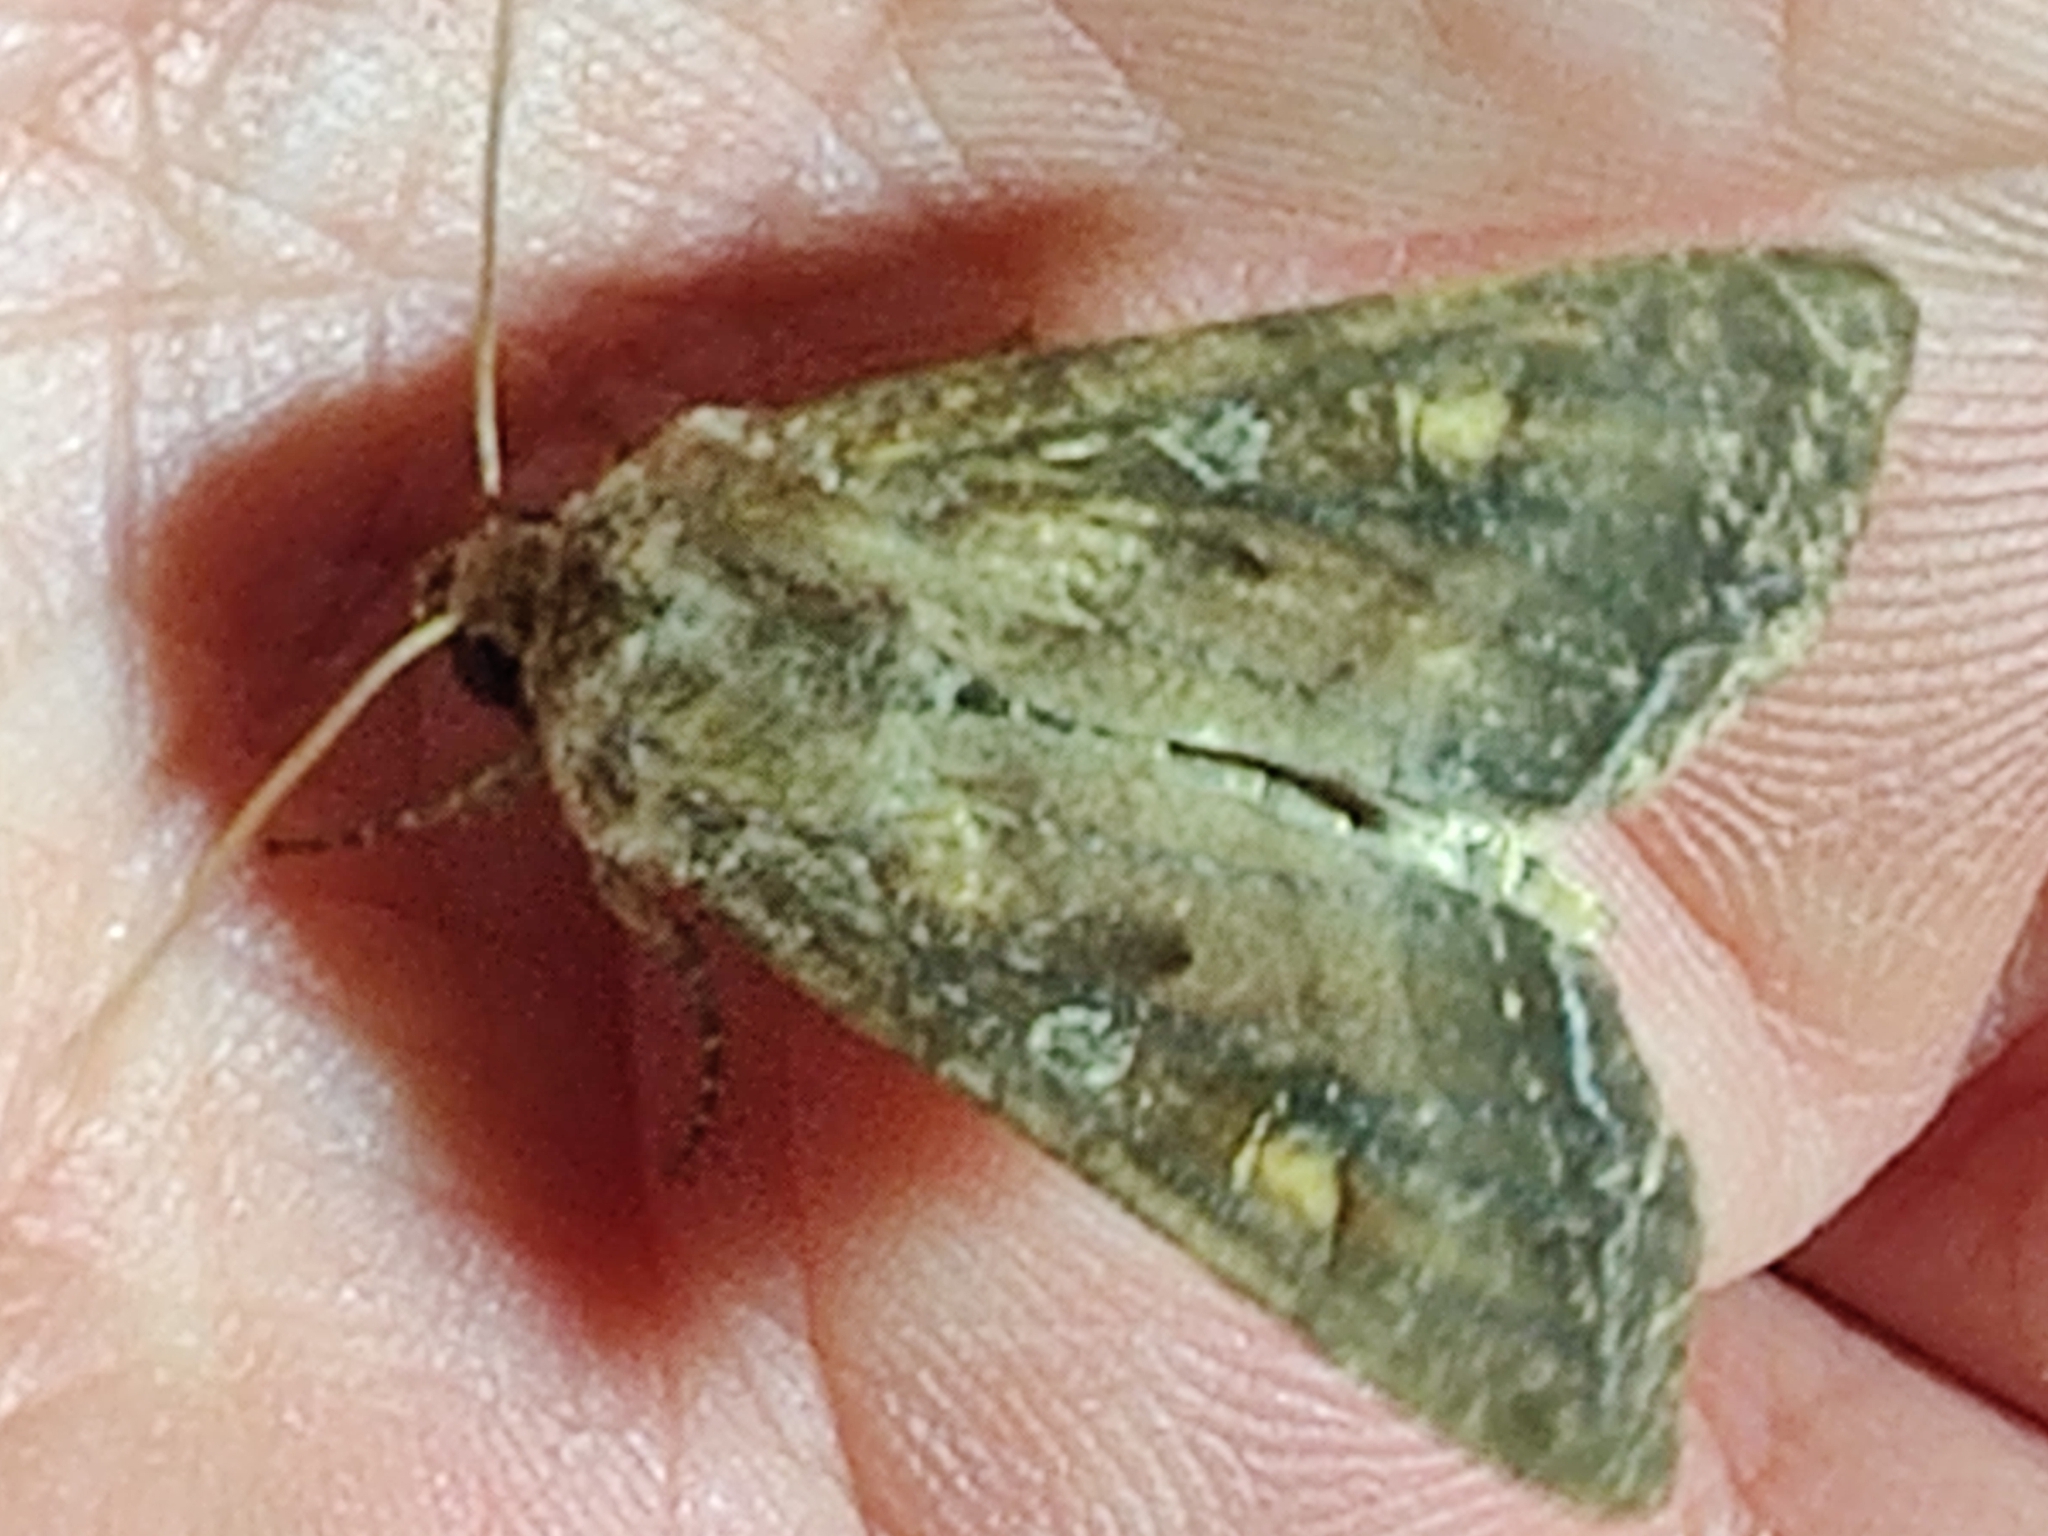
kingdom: Animalia
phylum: Arthropoda
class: Insecta
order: Lepidoptera
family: Noctuidae
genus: Lacanobia
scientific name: Lacanobia oleracea
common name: Bright-line brown-eye
